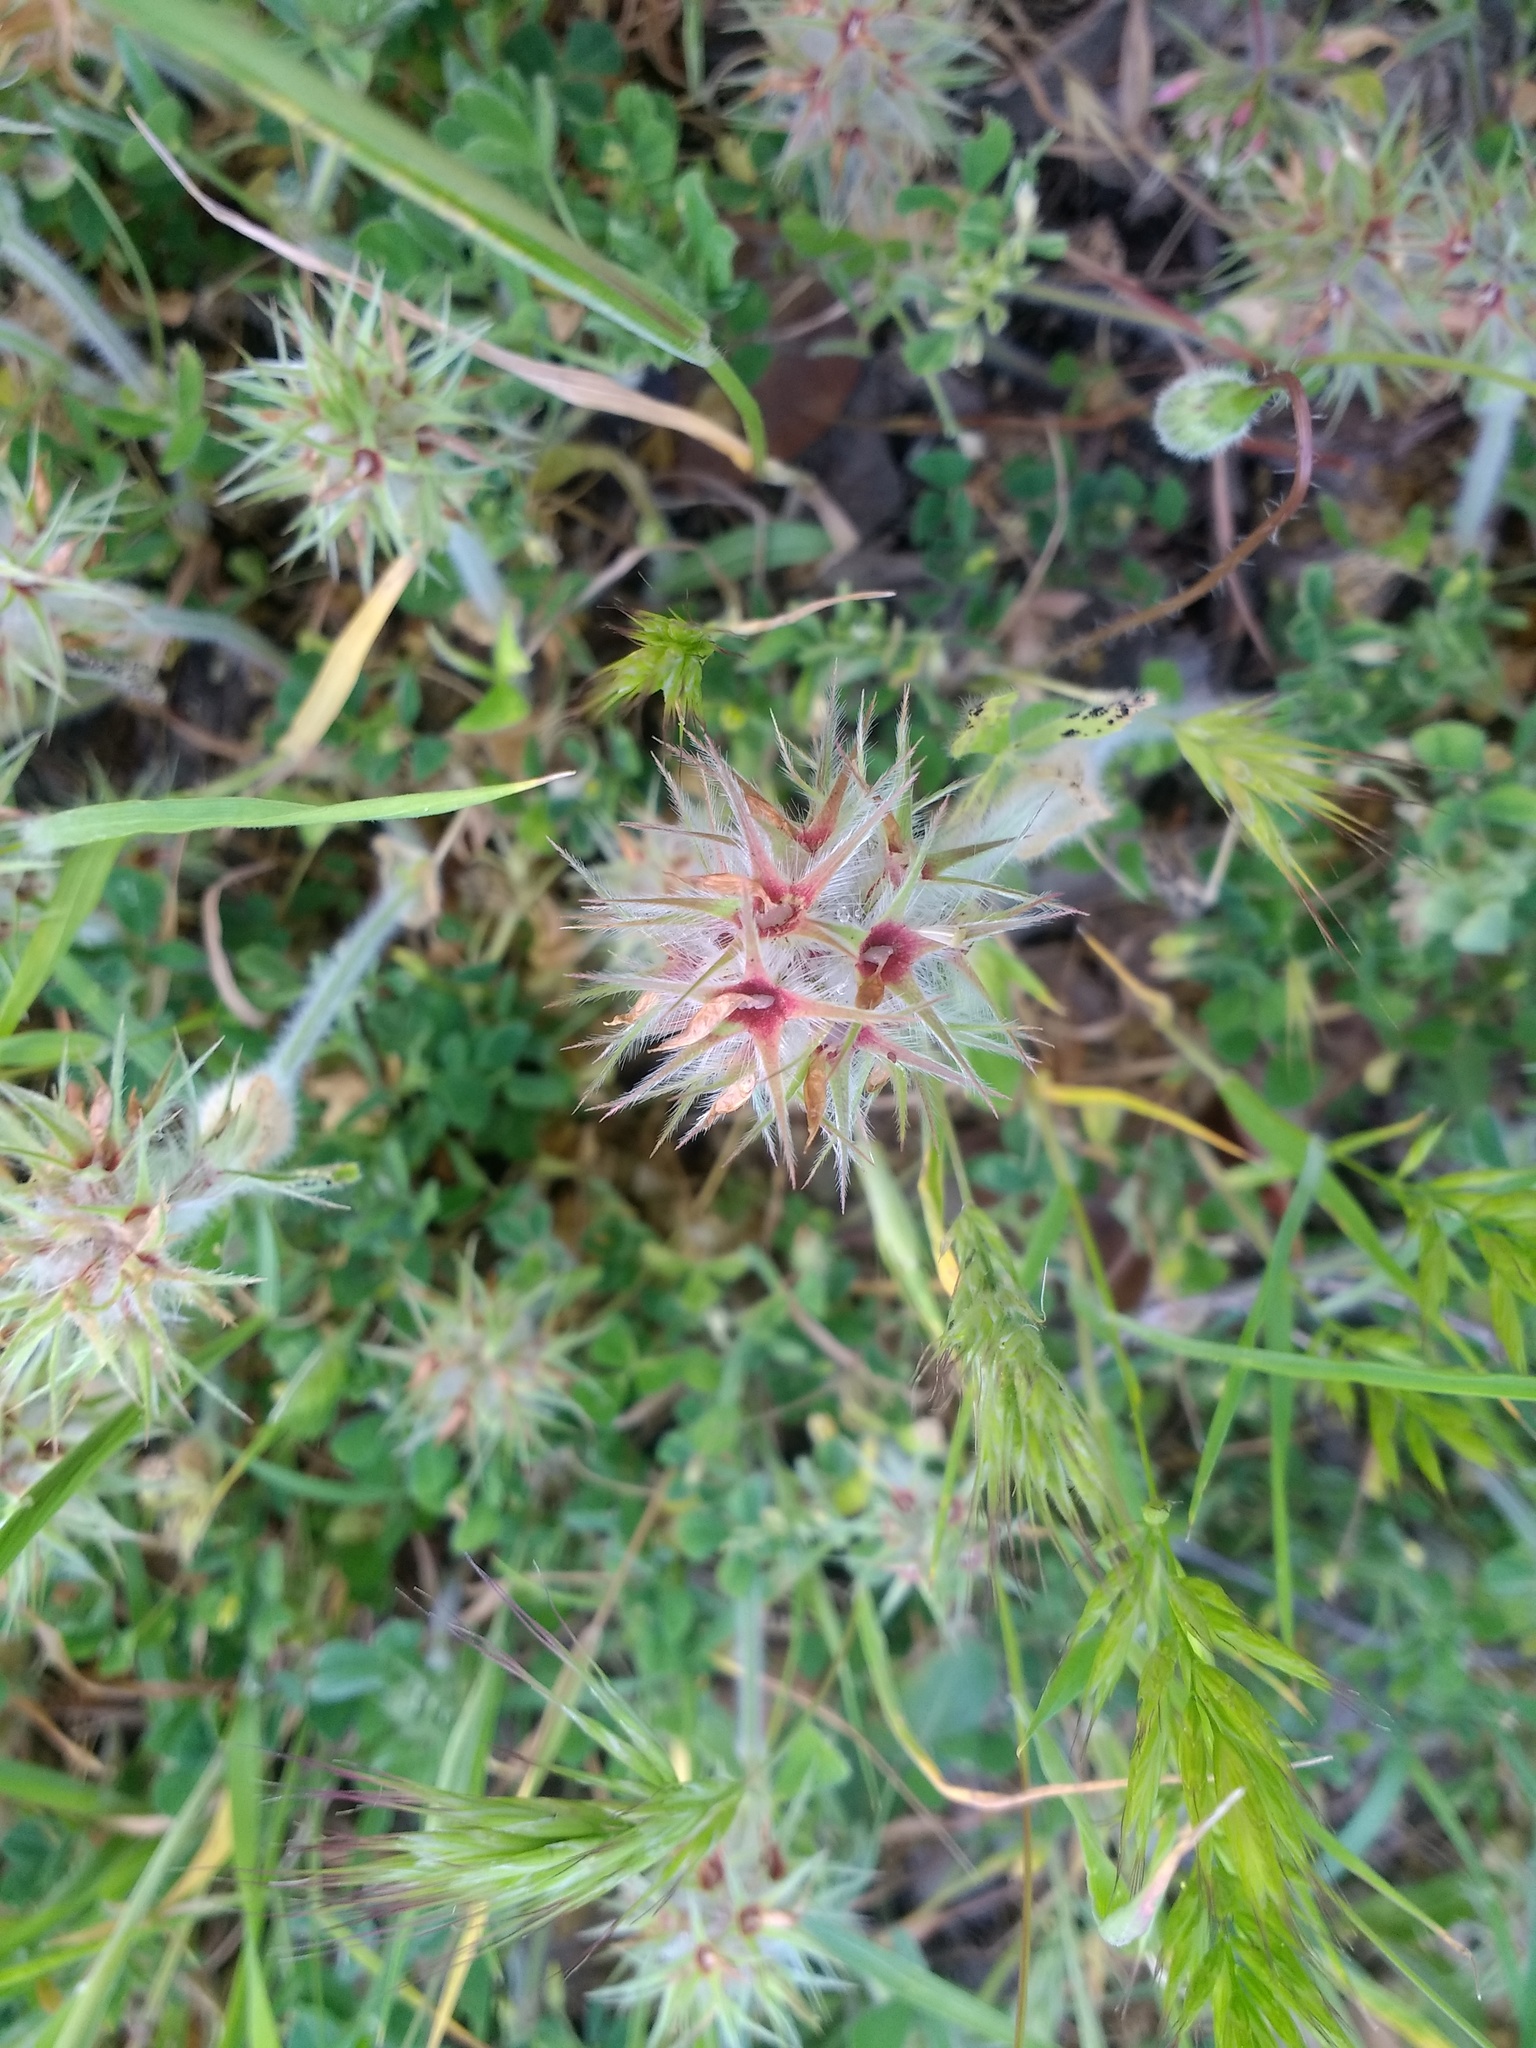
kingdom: Plantae
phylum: Tracheophyta
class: Magnoliopsida
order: Fabales
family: Fabaceae
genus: Trifolium
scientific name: Trifolium stellatum
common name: Starry clover
